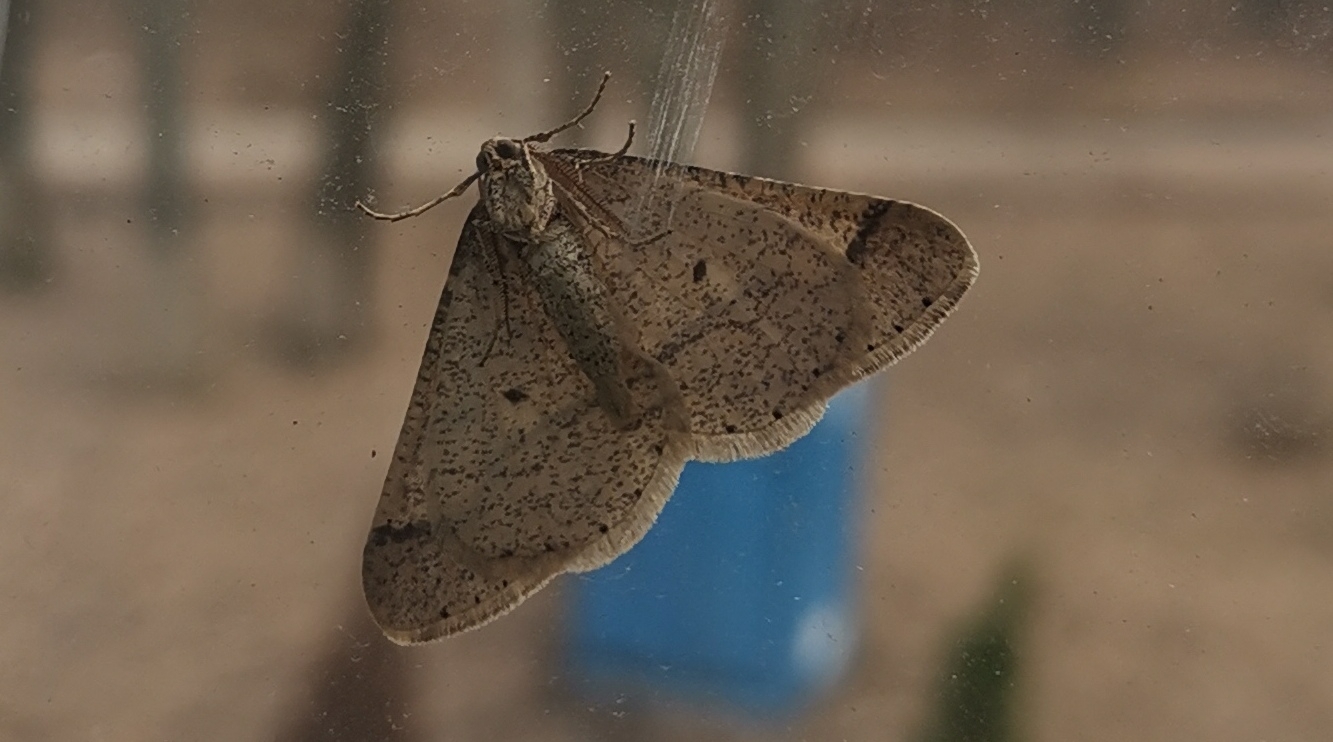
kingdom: Animalia
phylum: Arthropoda
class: Insecta
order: Lepidoptera
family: Geometridae
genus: Agriopis
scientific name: Agriopis marginaria
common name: Dotted border
